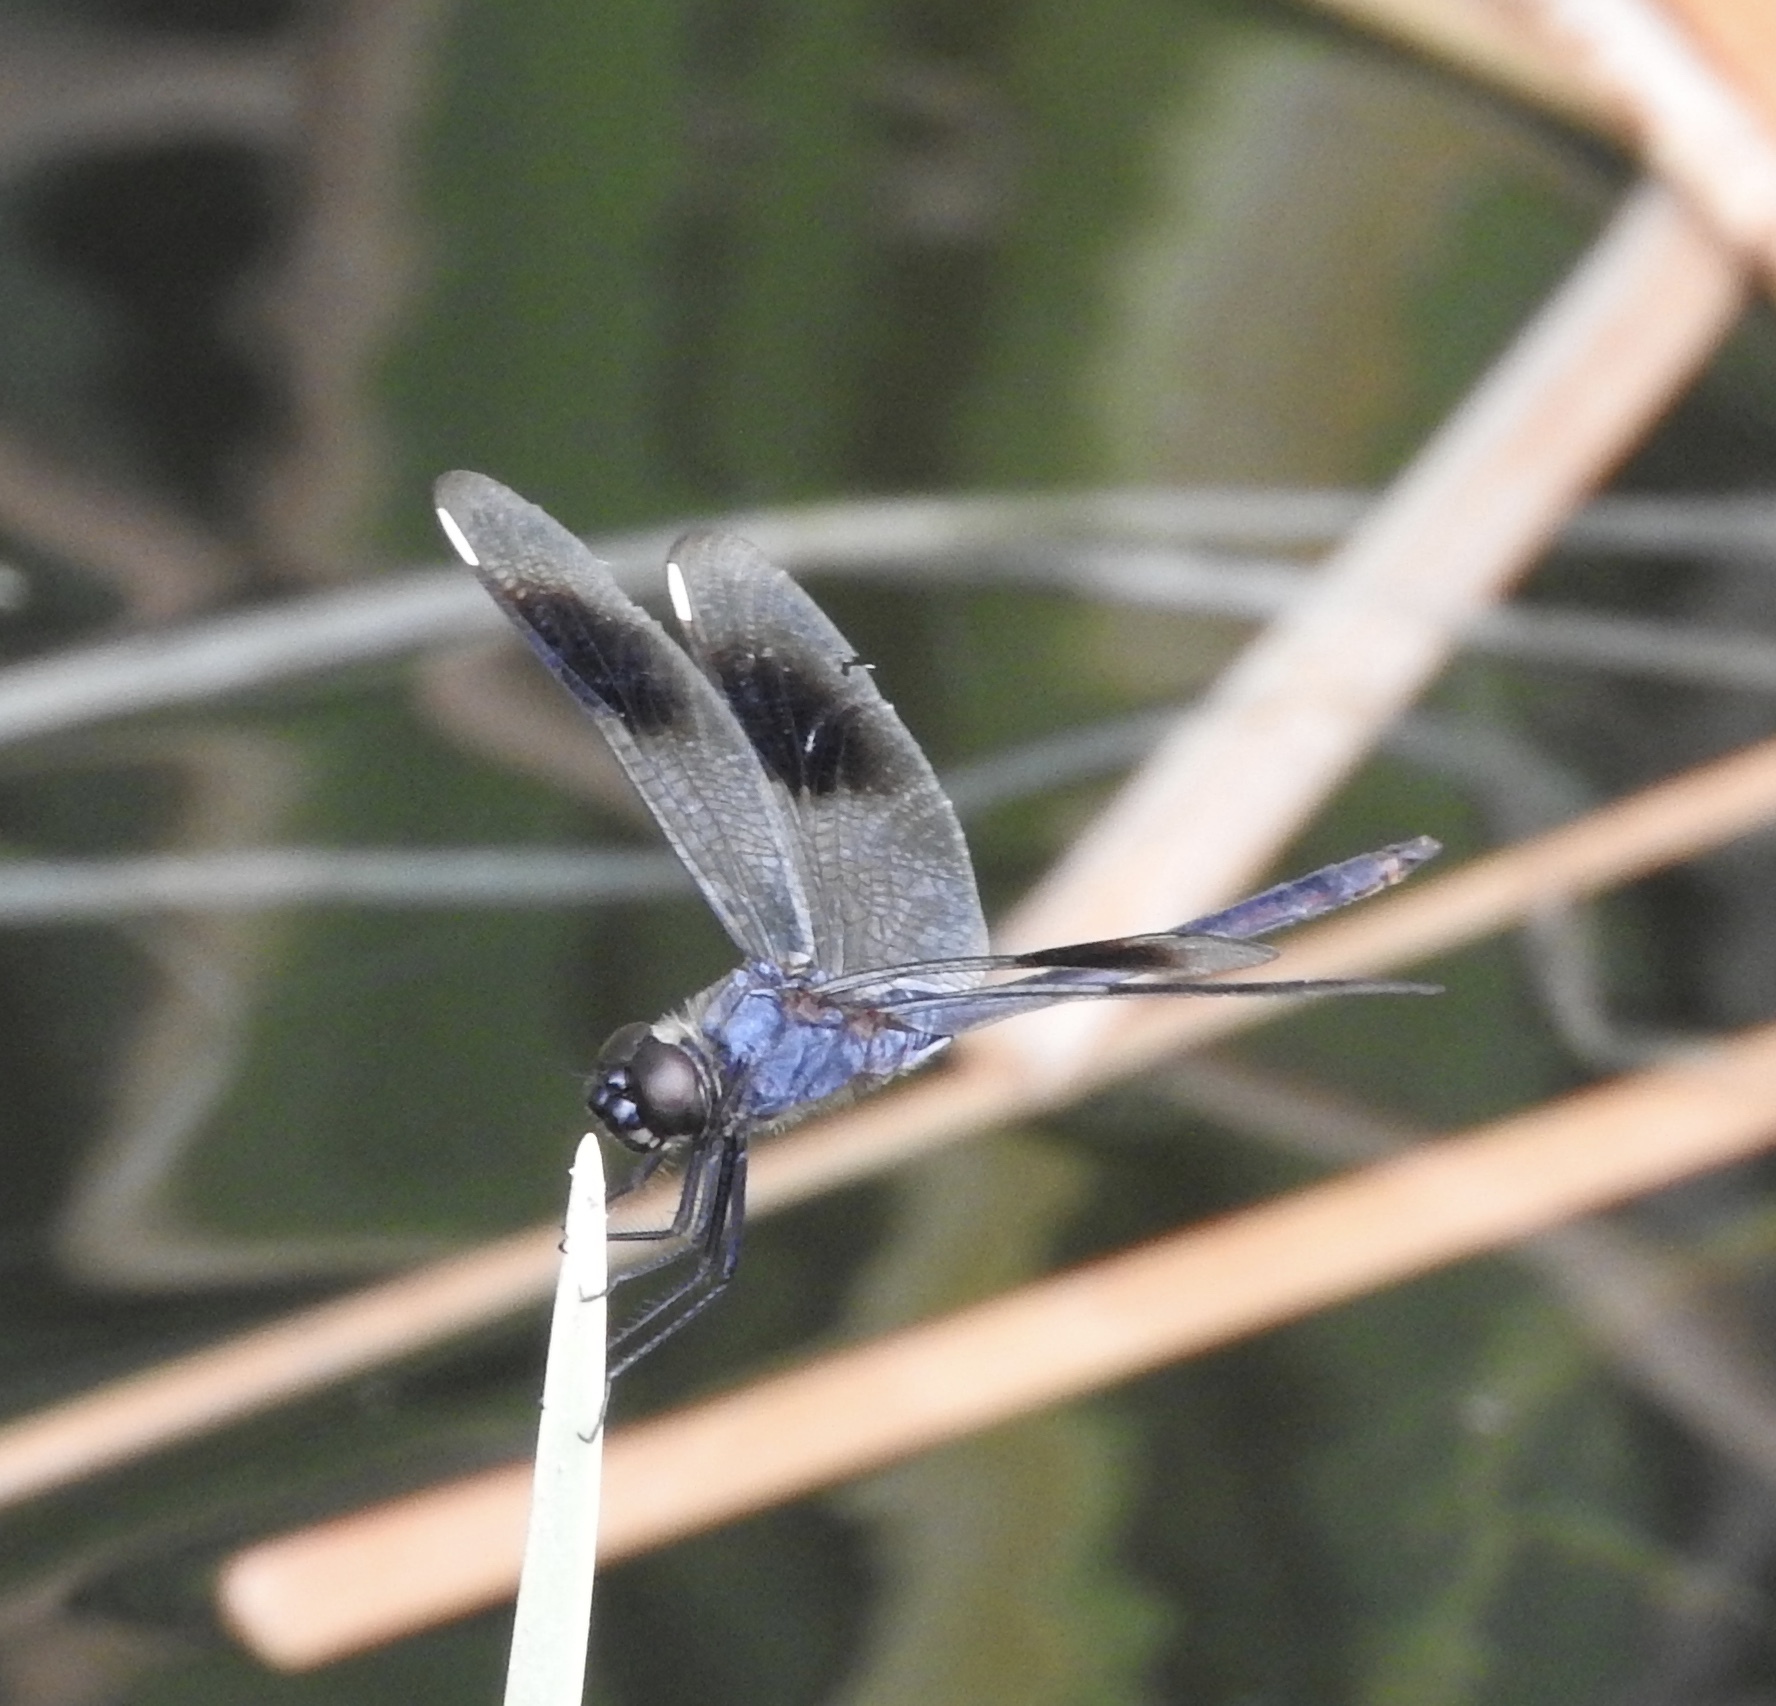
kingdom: Animalia
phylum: Arthropoda
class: Insecta
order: Odonata
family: Libellulidae
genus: Brachymesia
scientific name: Brachymesia gravida
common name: Four-spotted pennant
